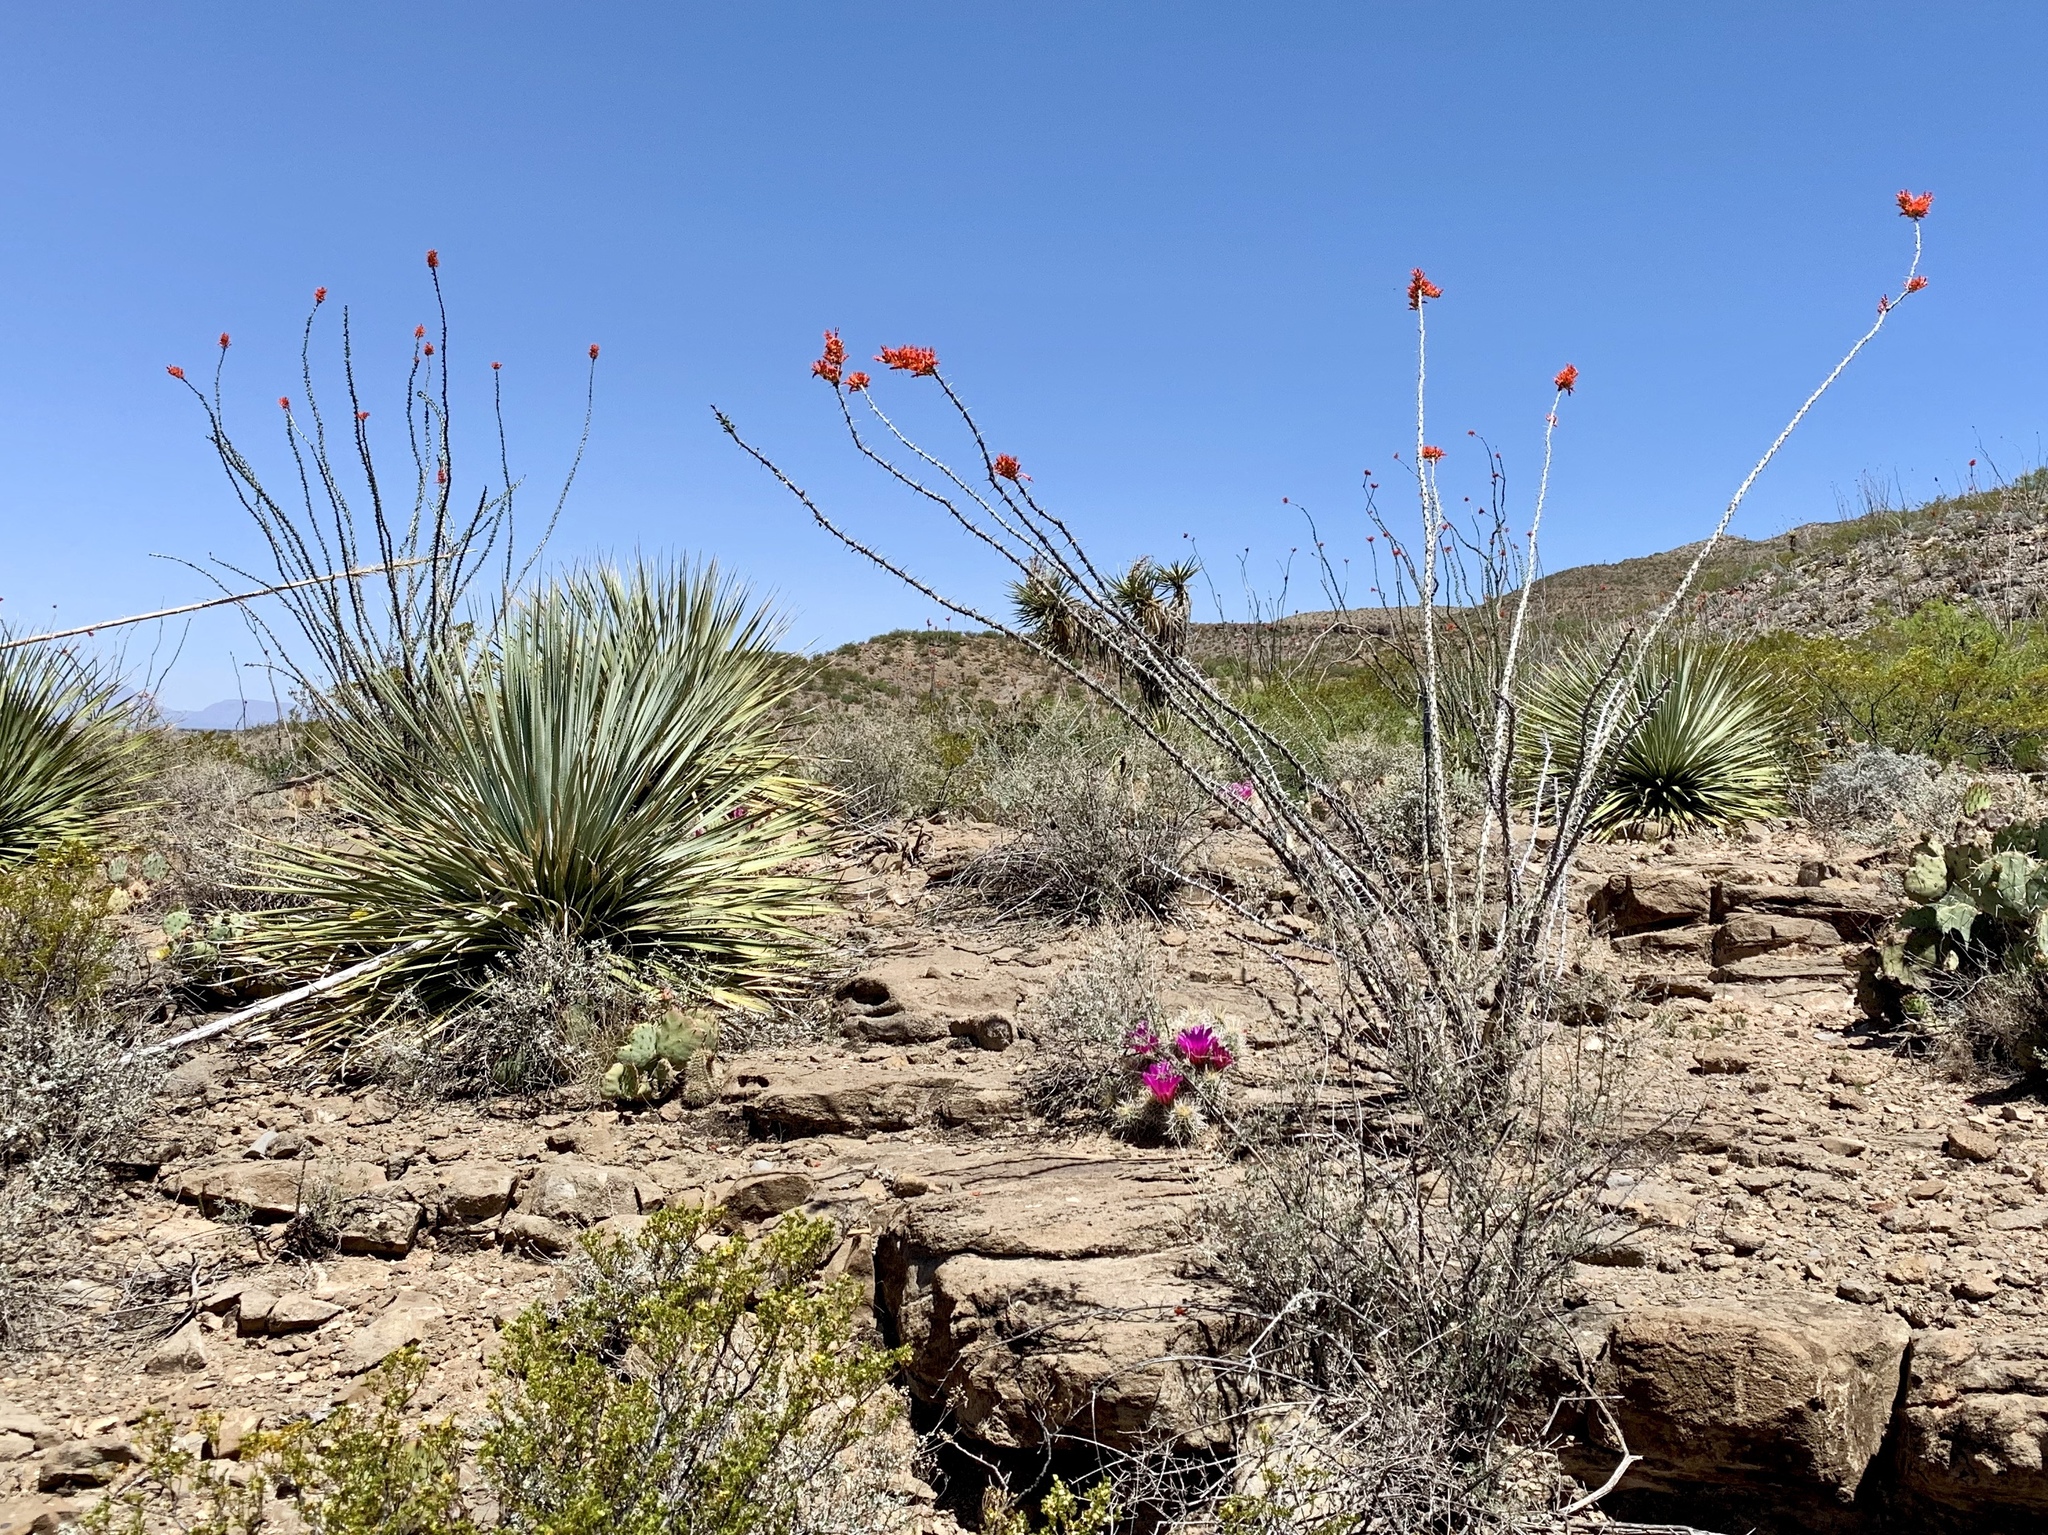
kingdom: Plantae
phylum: Tracheophyta
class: Magnoliopsida
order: Ericales
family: Fouquieriaceae
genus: Fouquieria
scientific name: Fouquieria splendens
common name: Vine-cactus
